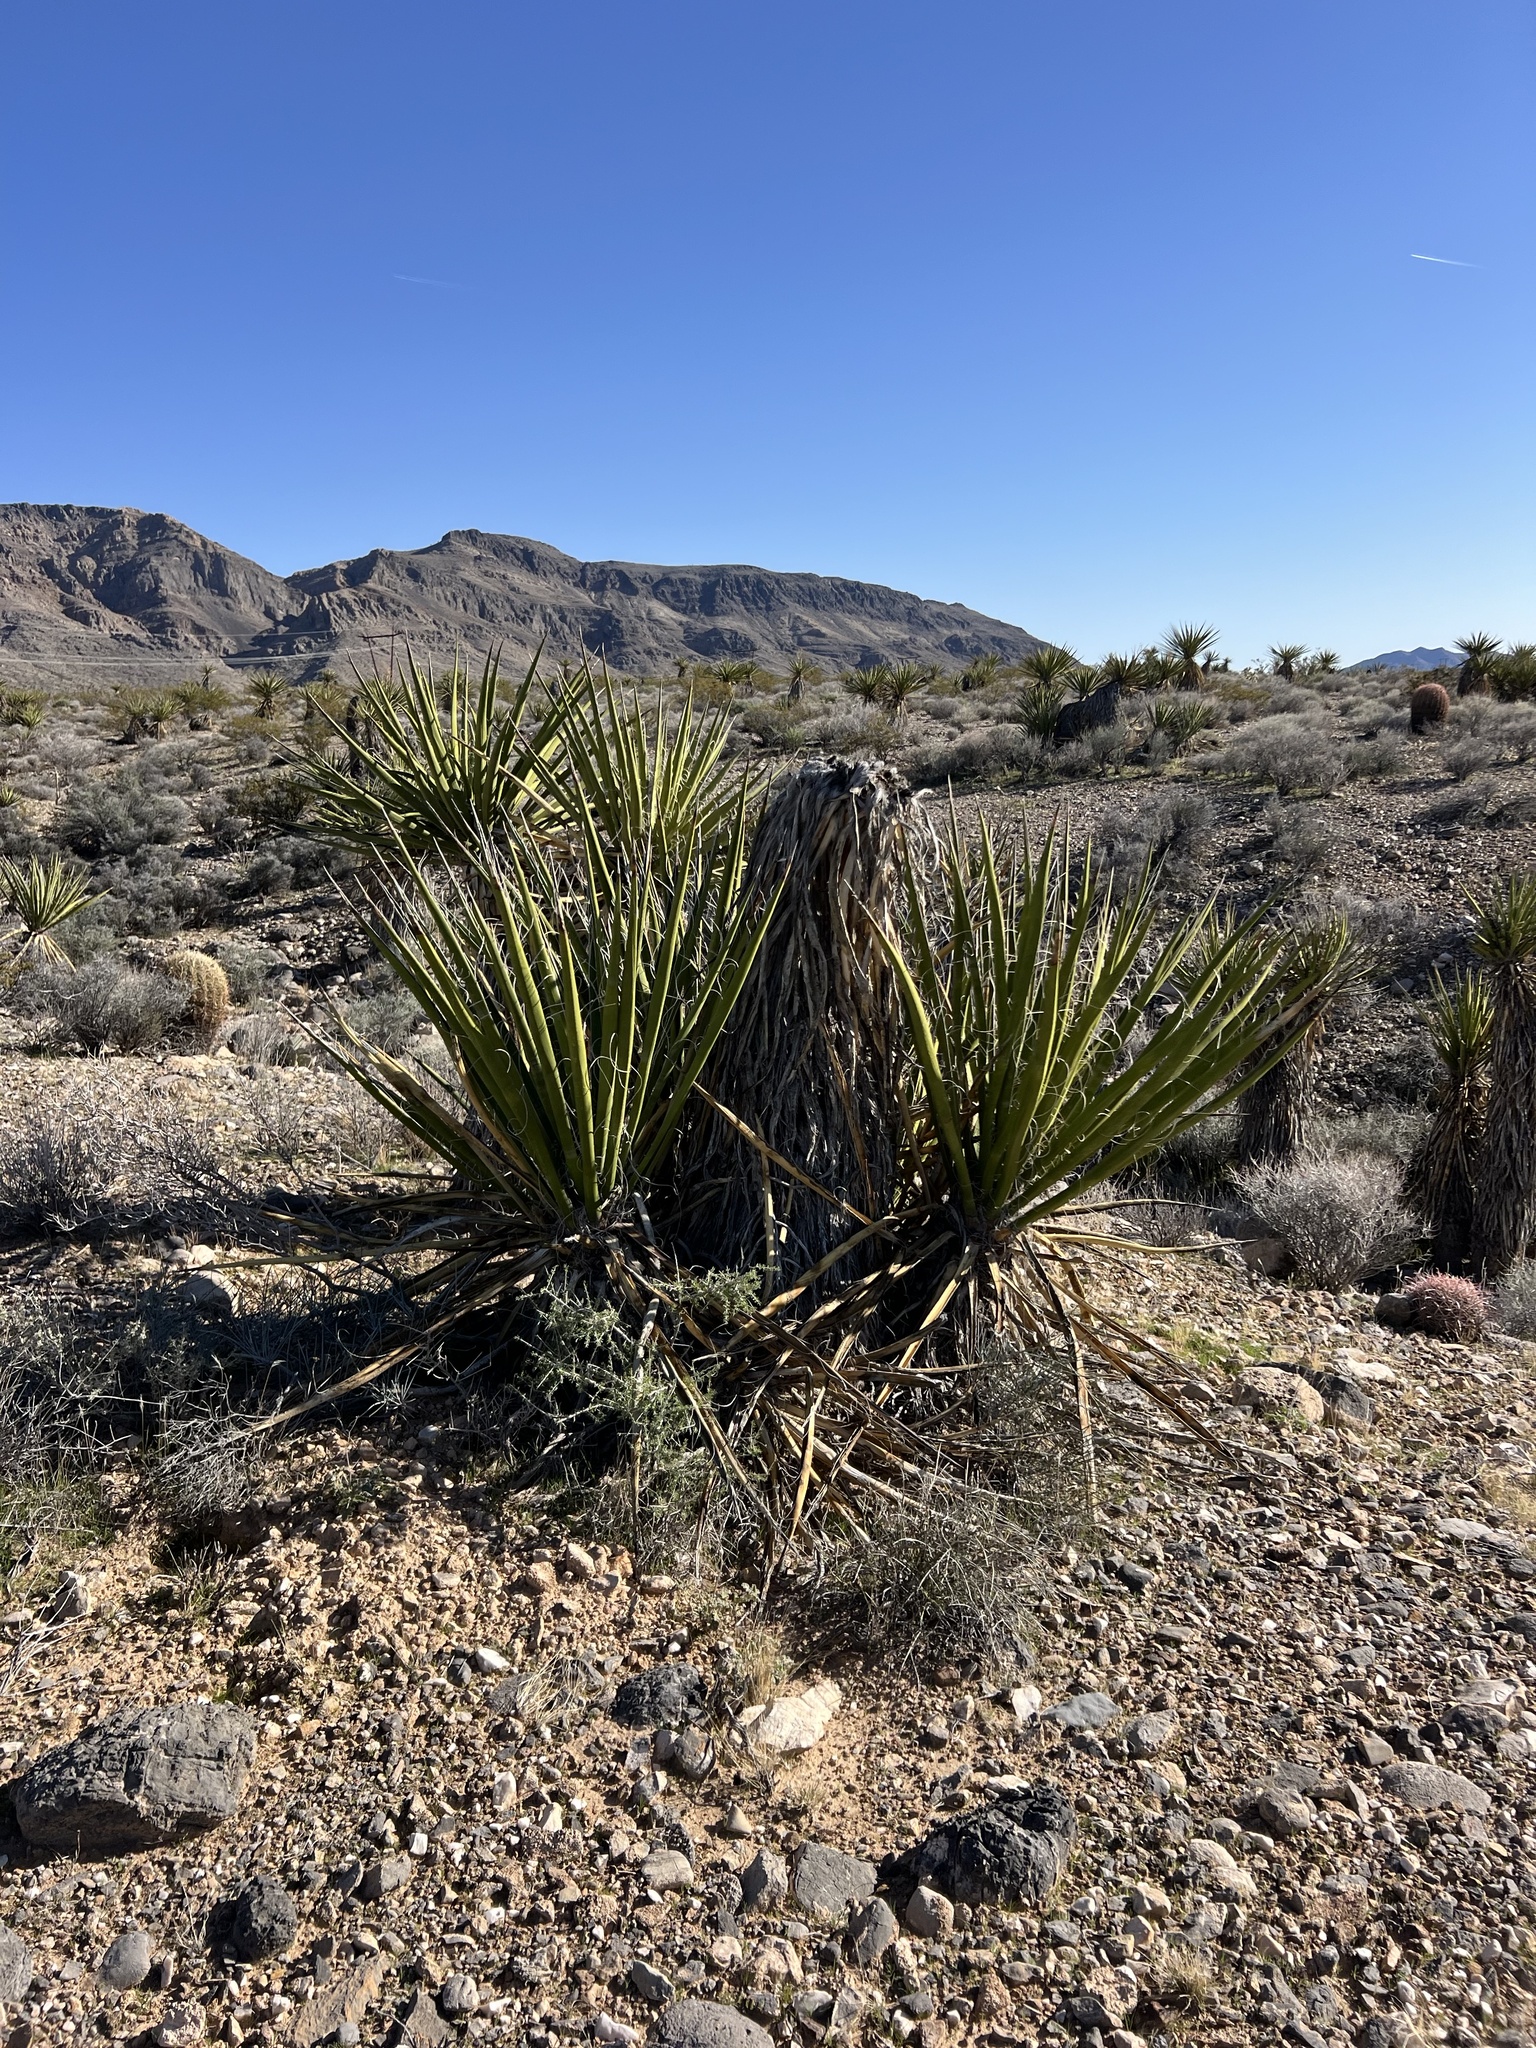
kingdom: Plantae
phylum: Tracheophyta
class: Liliopsida
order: Asparagales
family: Asparagaceae
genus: Yucca
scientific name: Yucca schidigera
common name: Mojave yucca
